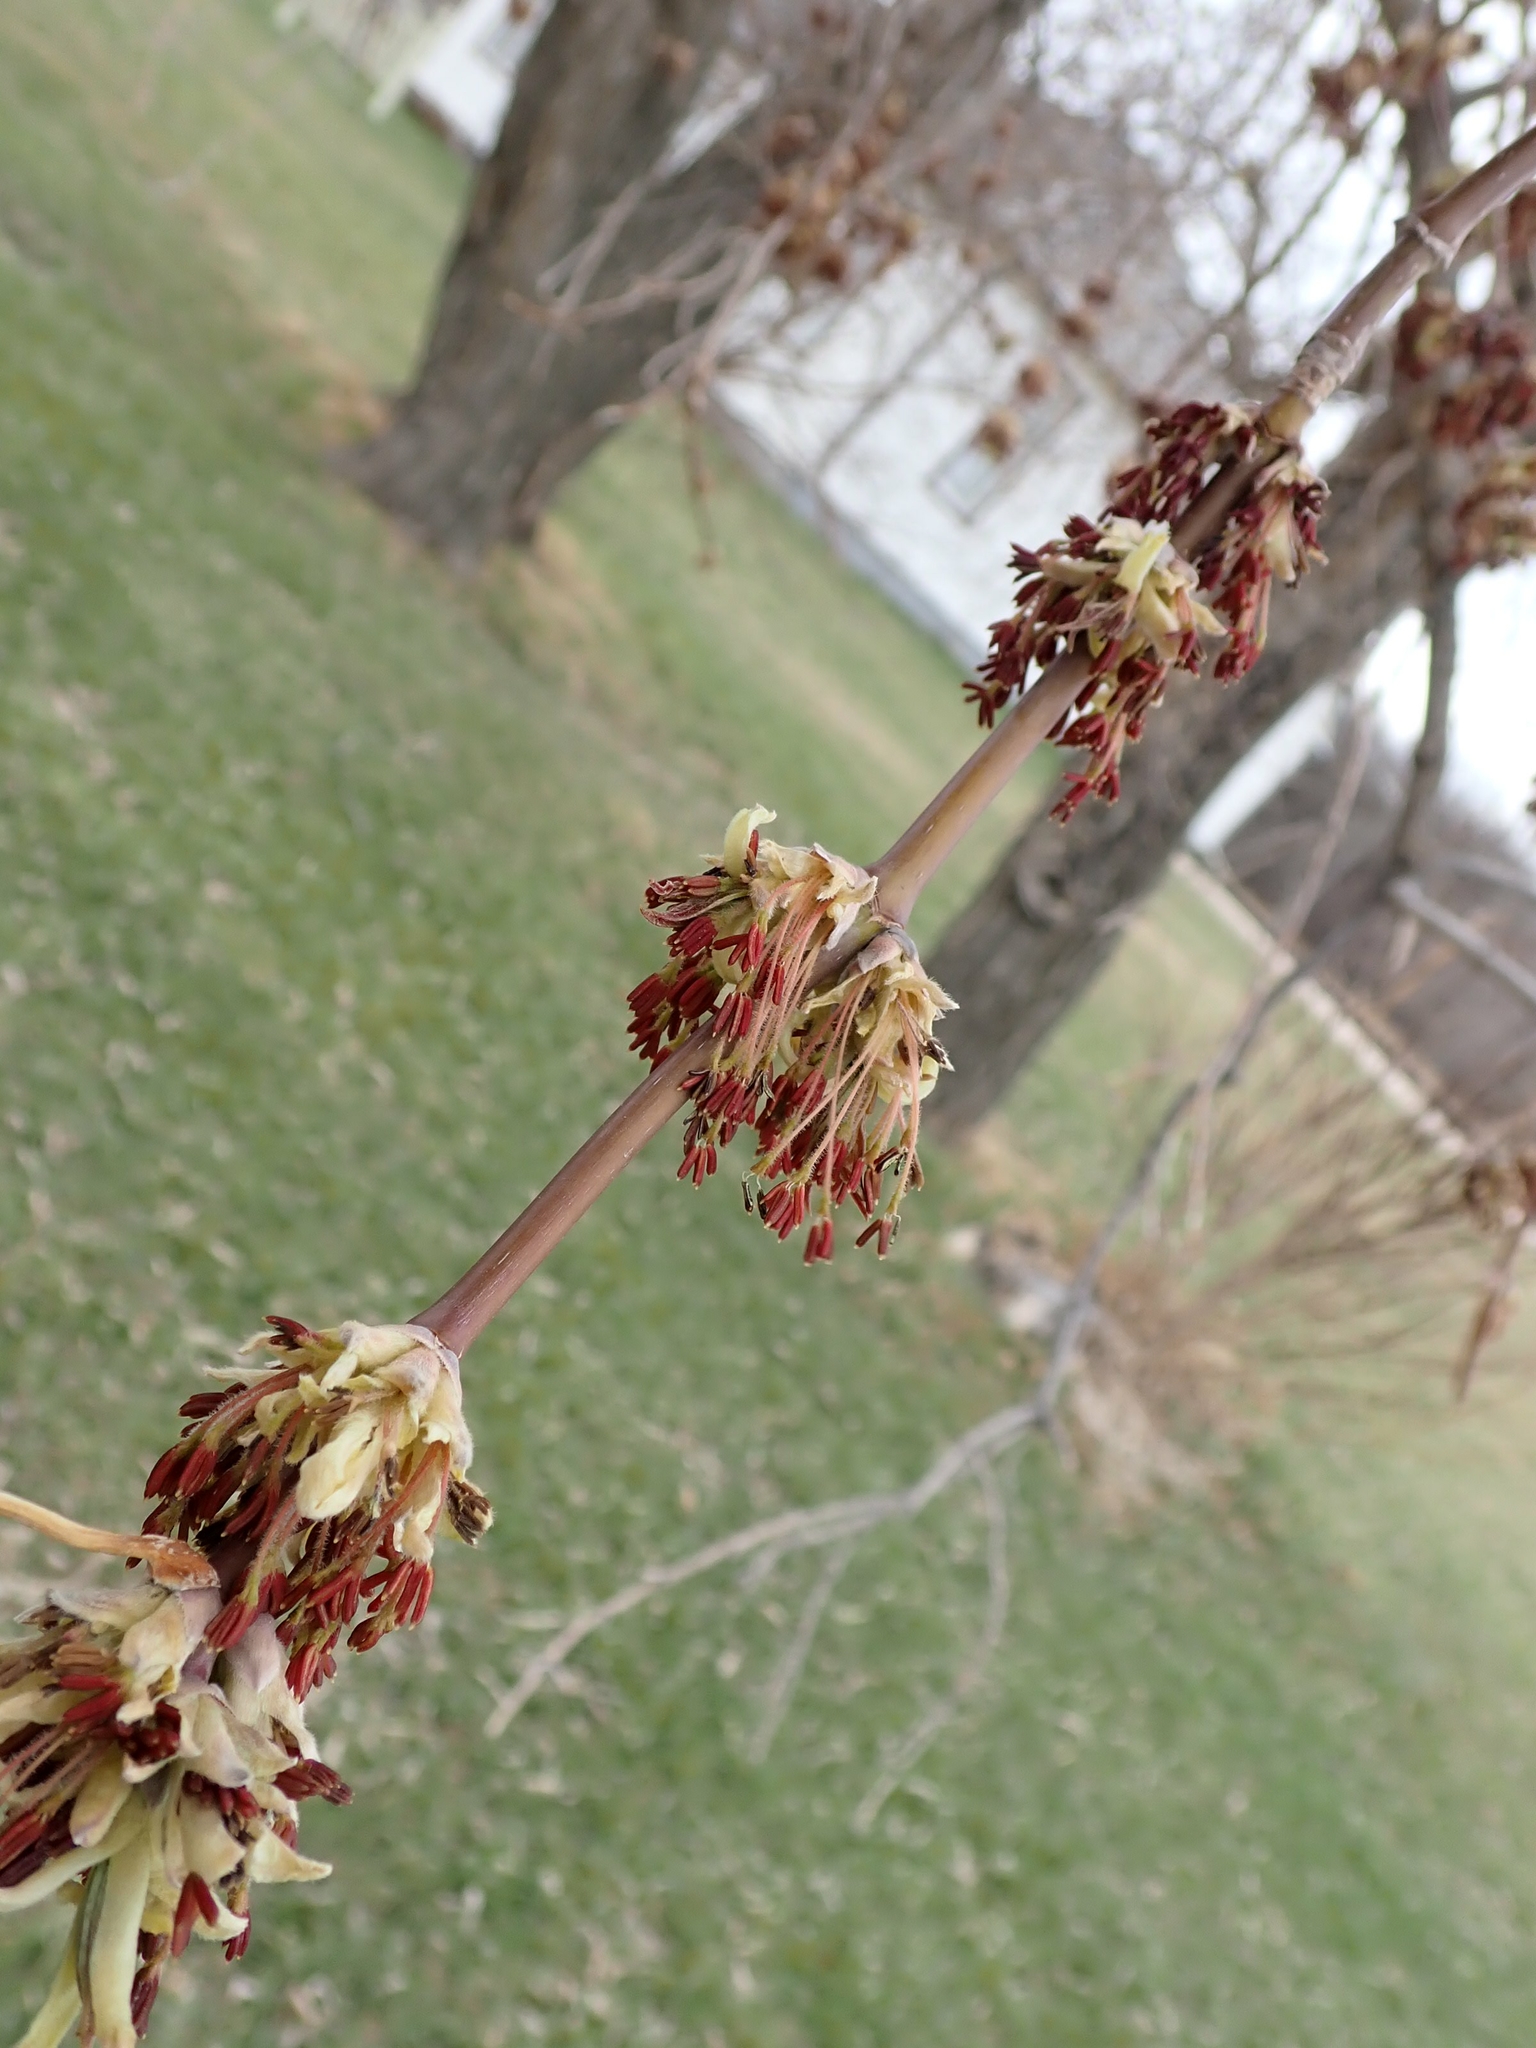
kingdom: Plantae
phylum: Tracheophyta
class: Magnoliopsida
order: Sapindales
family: Sapindaceae
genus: Acer
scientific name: Acer negundo
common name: Ashleaf maple
